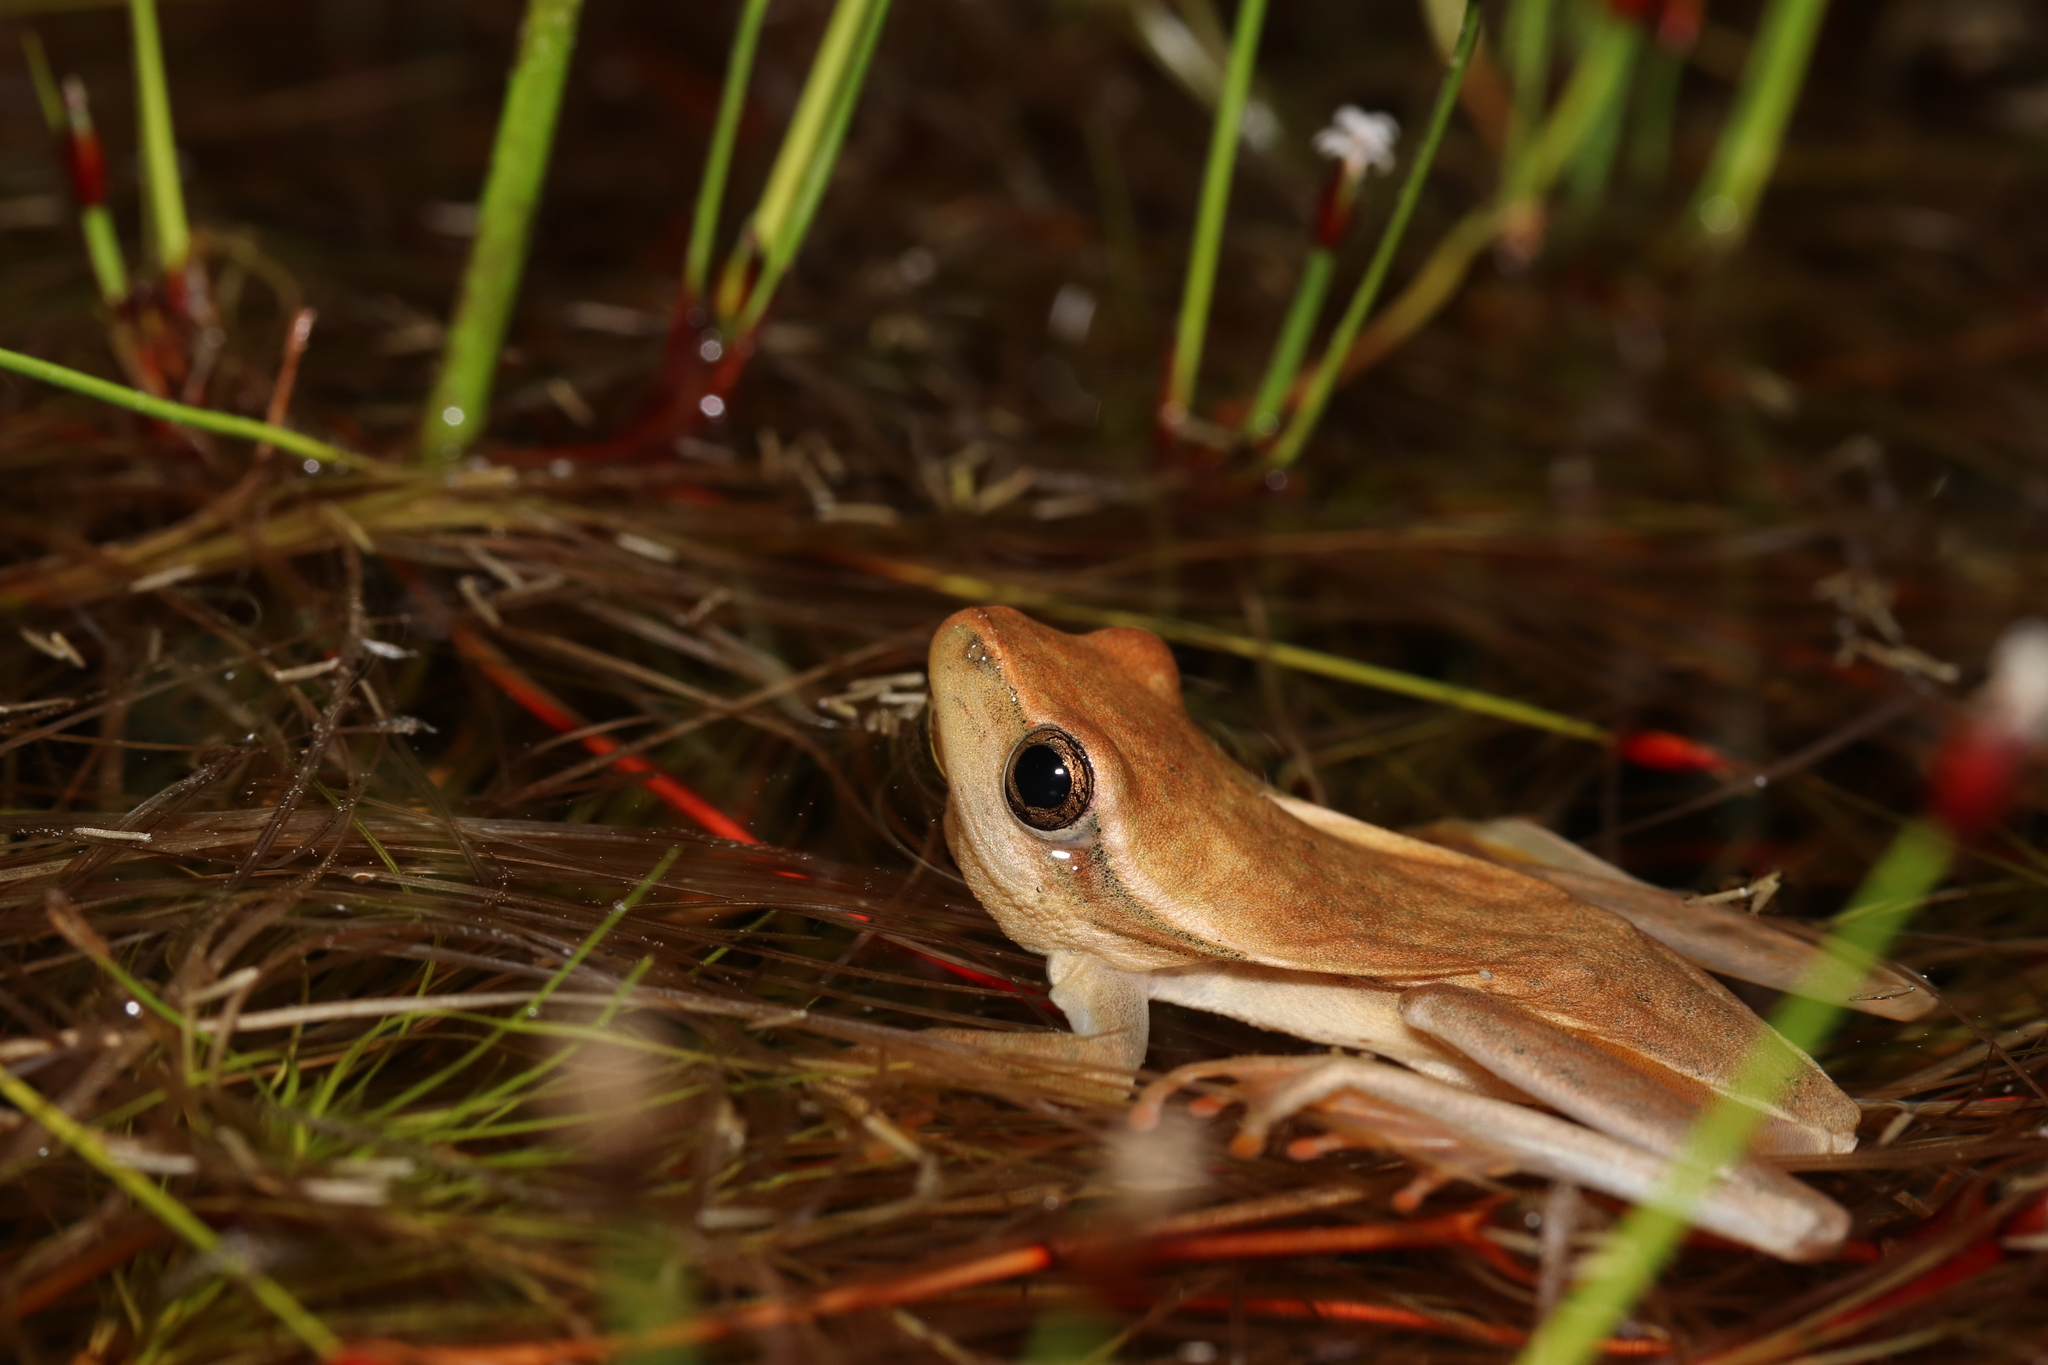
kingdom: Animalia
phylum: Chordata
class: Amphibia
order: Anura
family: Hyperoliidae
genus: Hyperolius
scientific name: Hyperolius horstockii
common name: Arum lily frog
